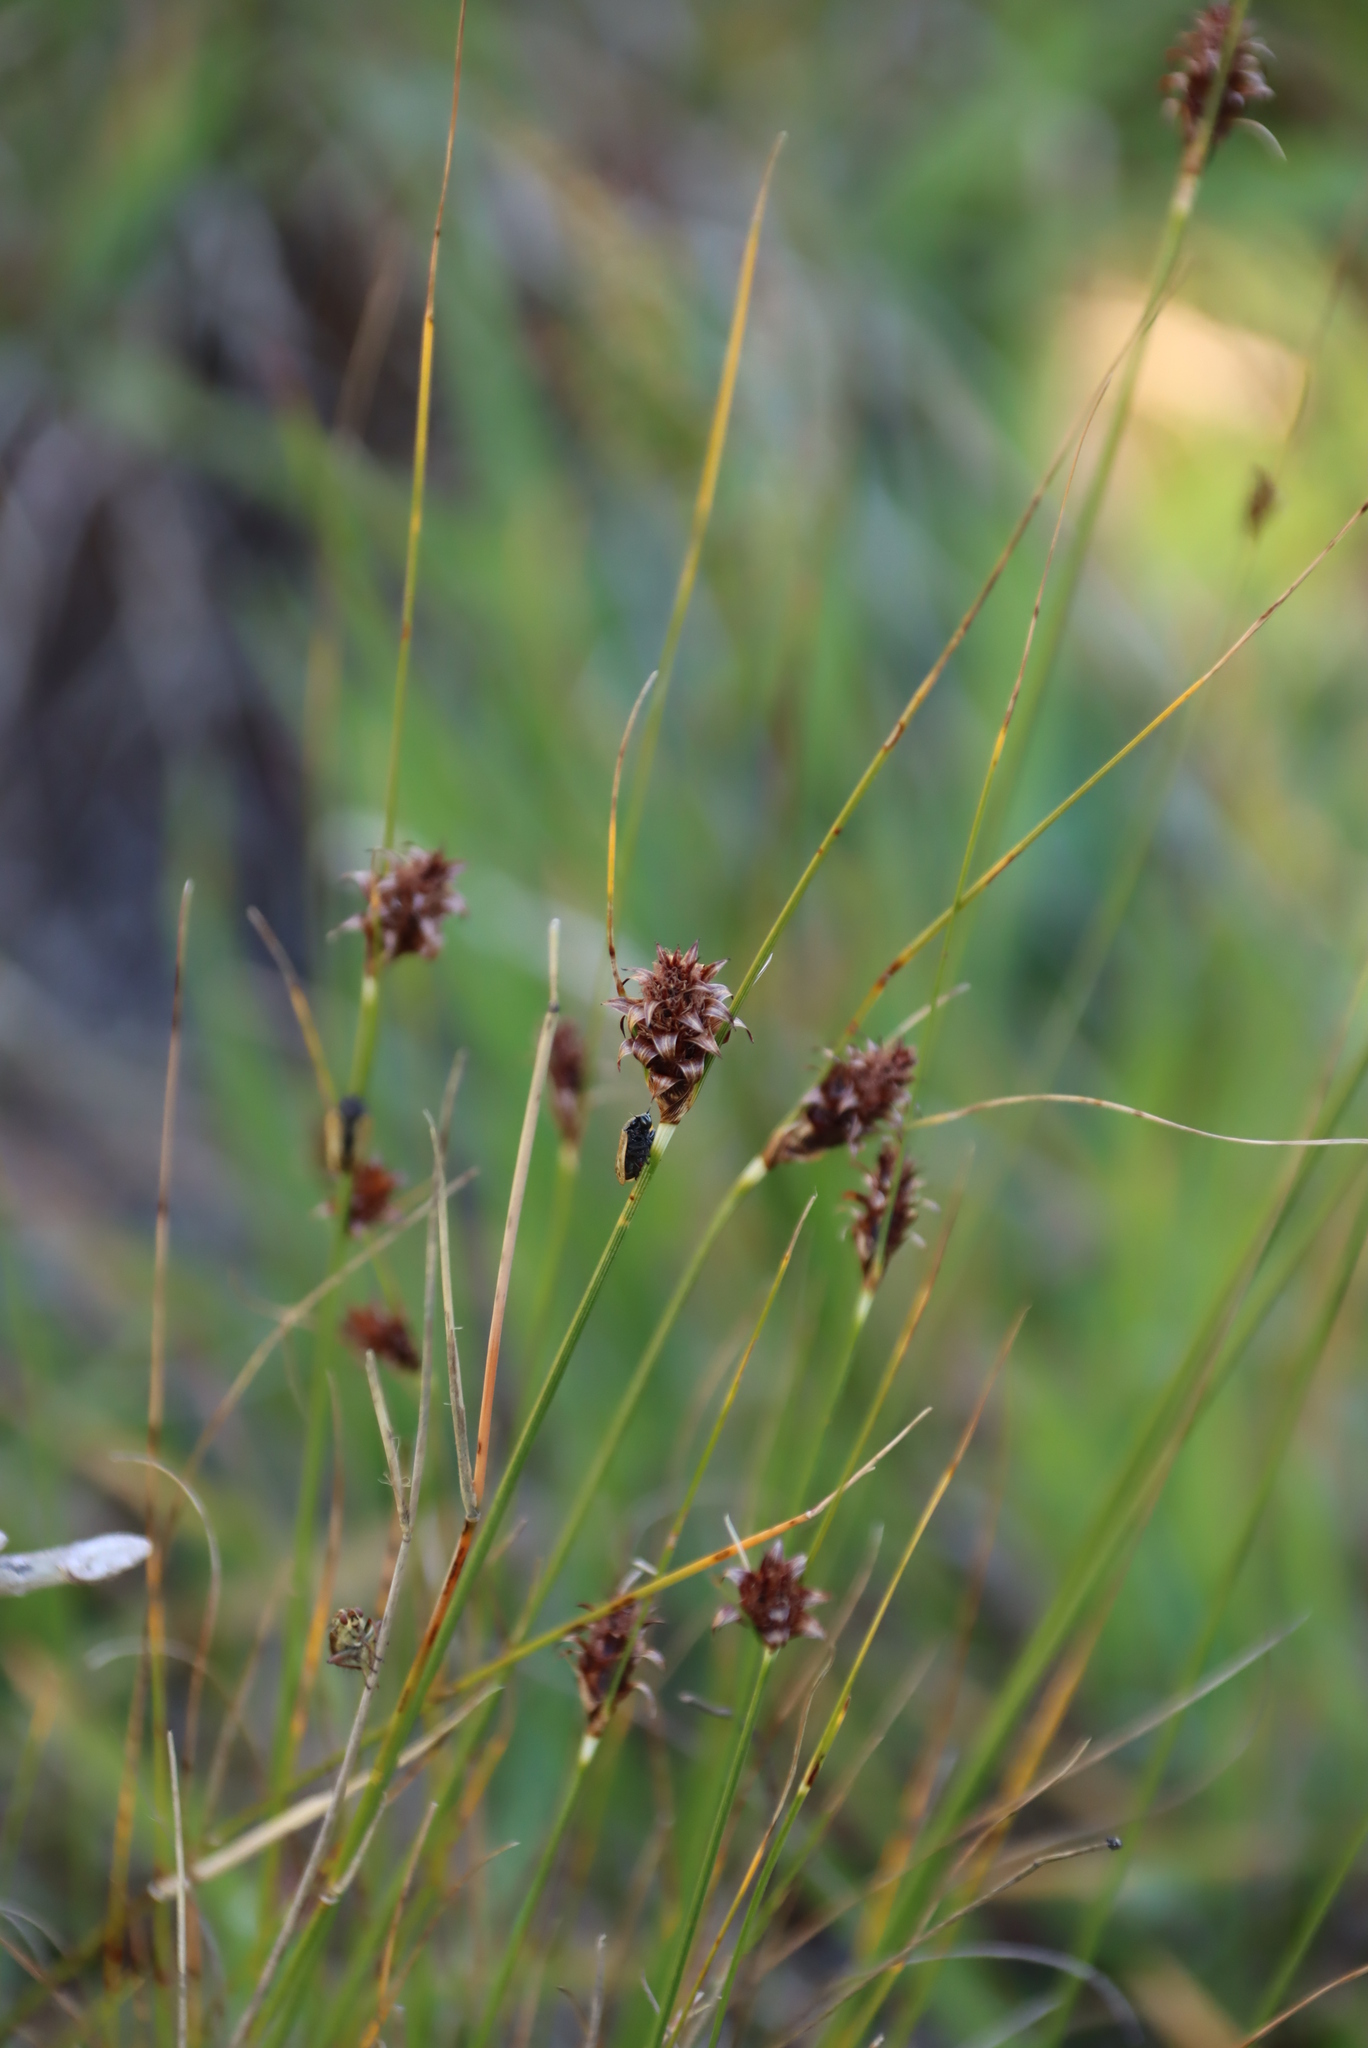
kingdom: Plantae
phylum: Tracheophyta
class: Liliopsida
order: Poales
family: Cyperaceae
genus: Ficinia
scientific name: Ficinia nigrescens
